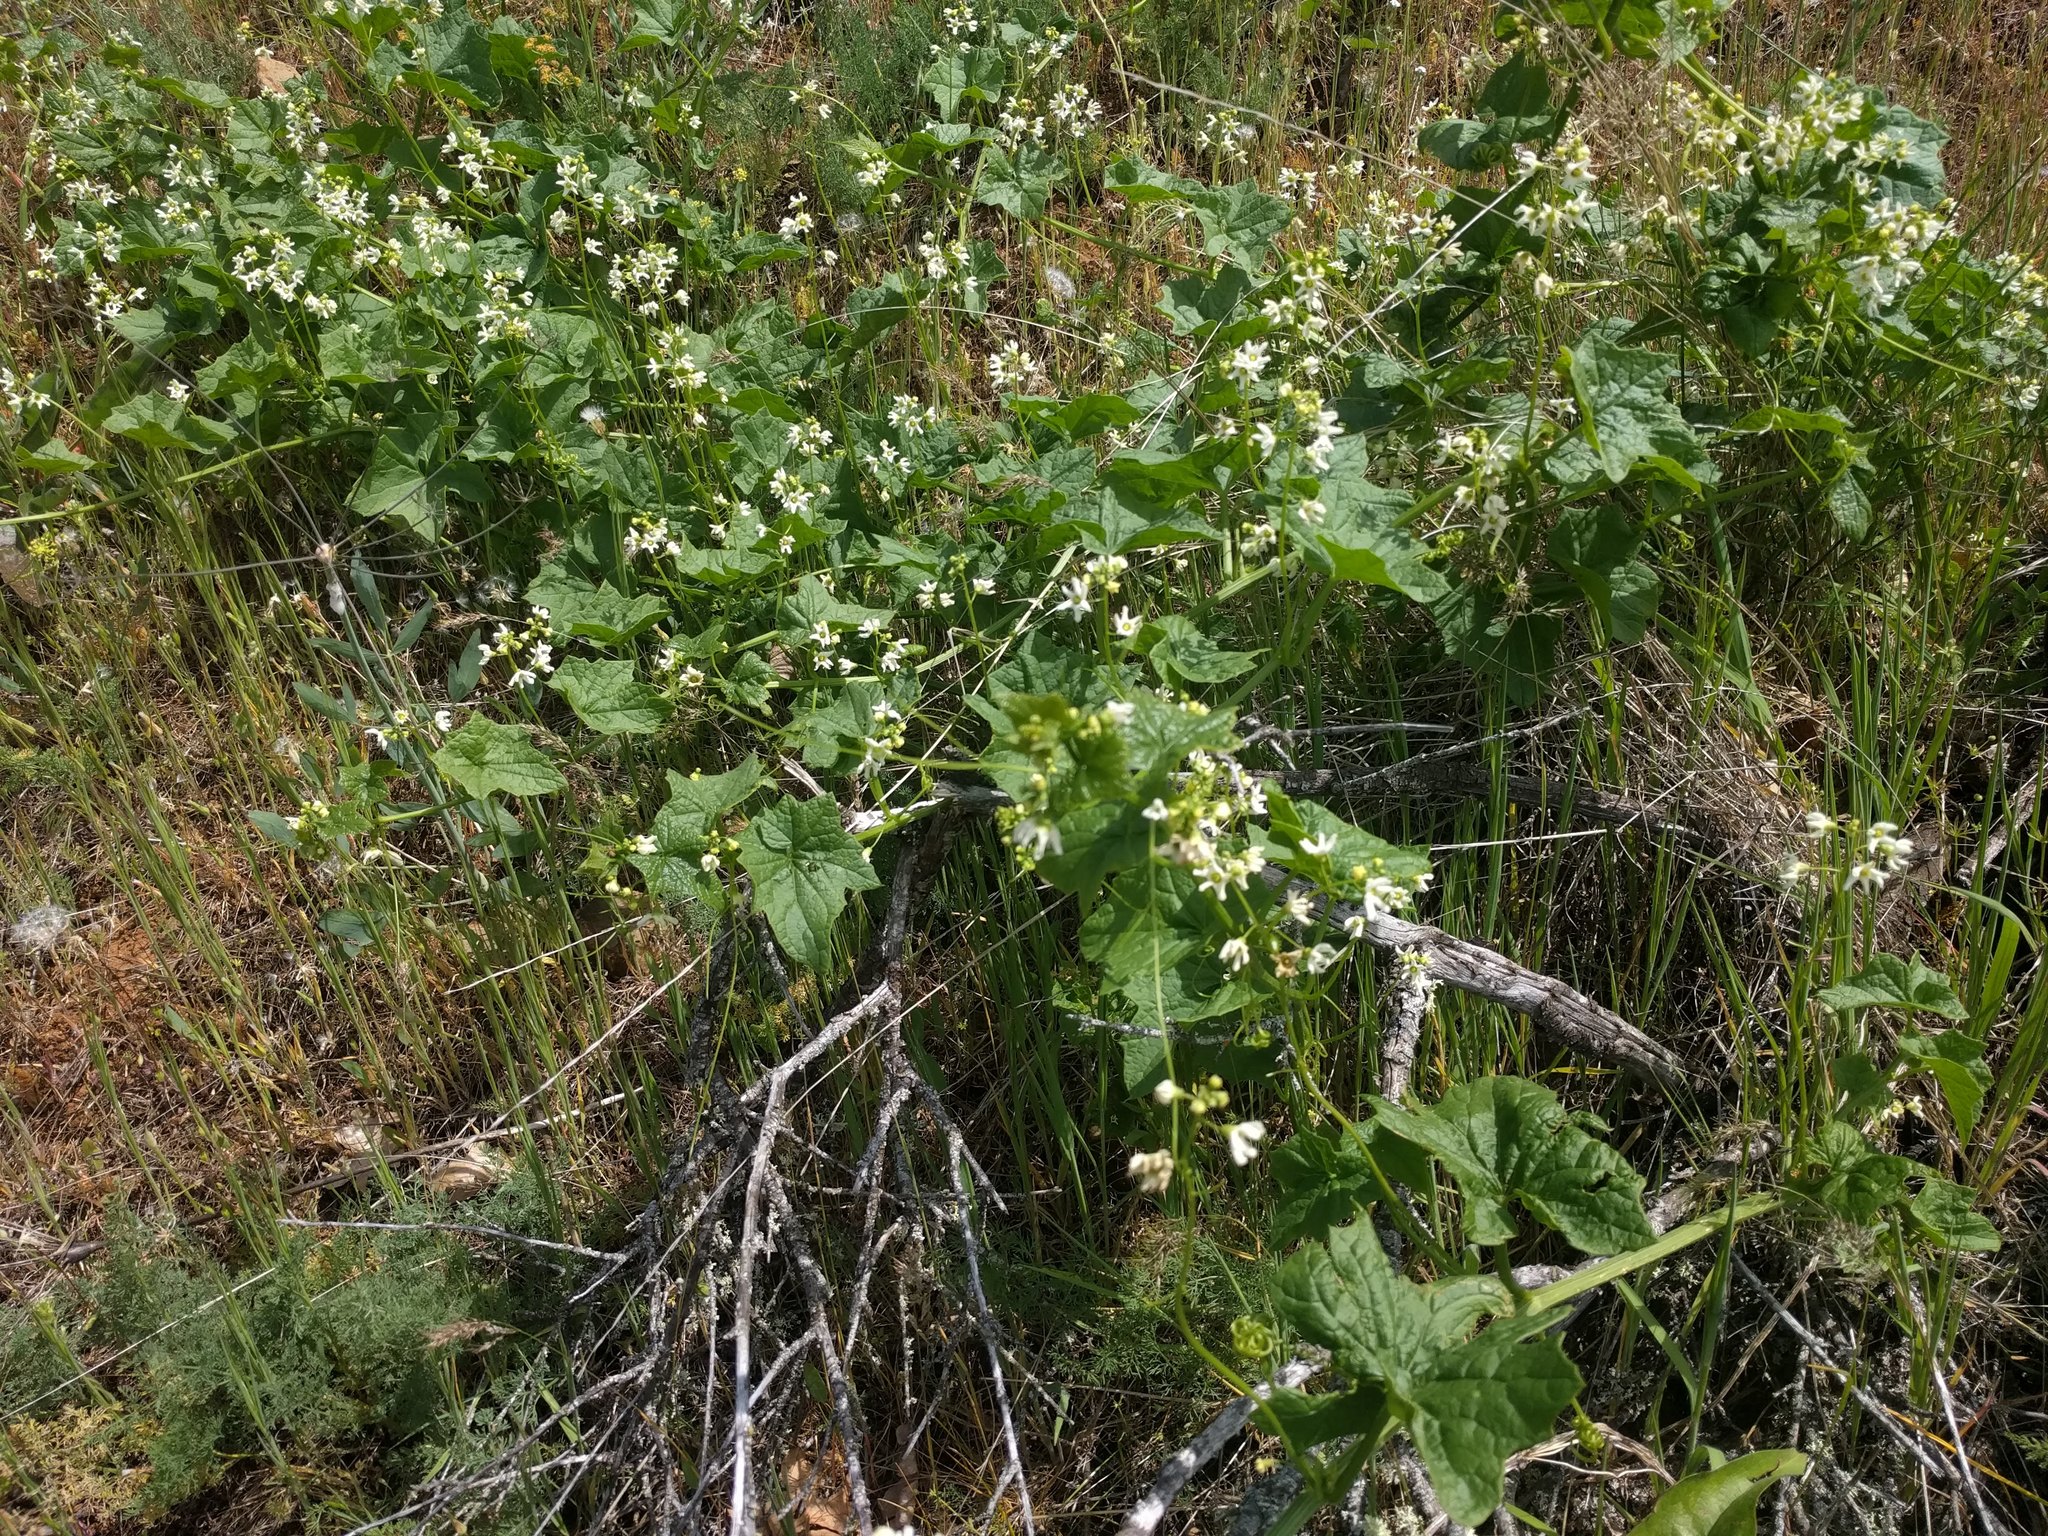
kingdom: Plantae
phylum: Tracheophyta
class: Magnoliopsida
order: Cucurbitales
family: Cucurbitaceae
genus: Marah
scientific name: Marah oregana
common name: Coastal manroot
